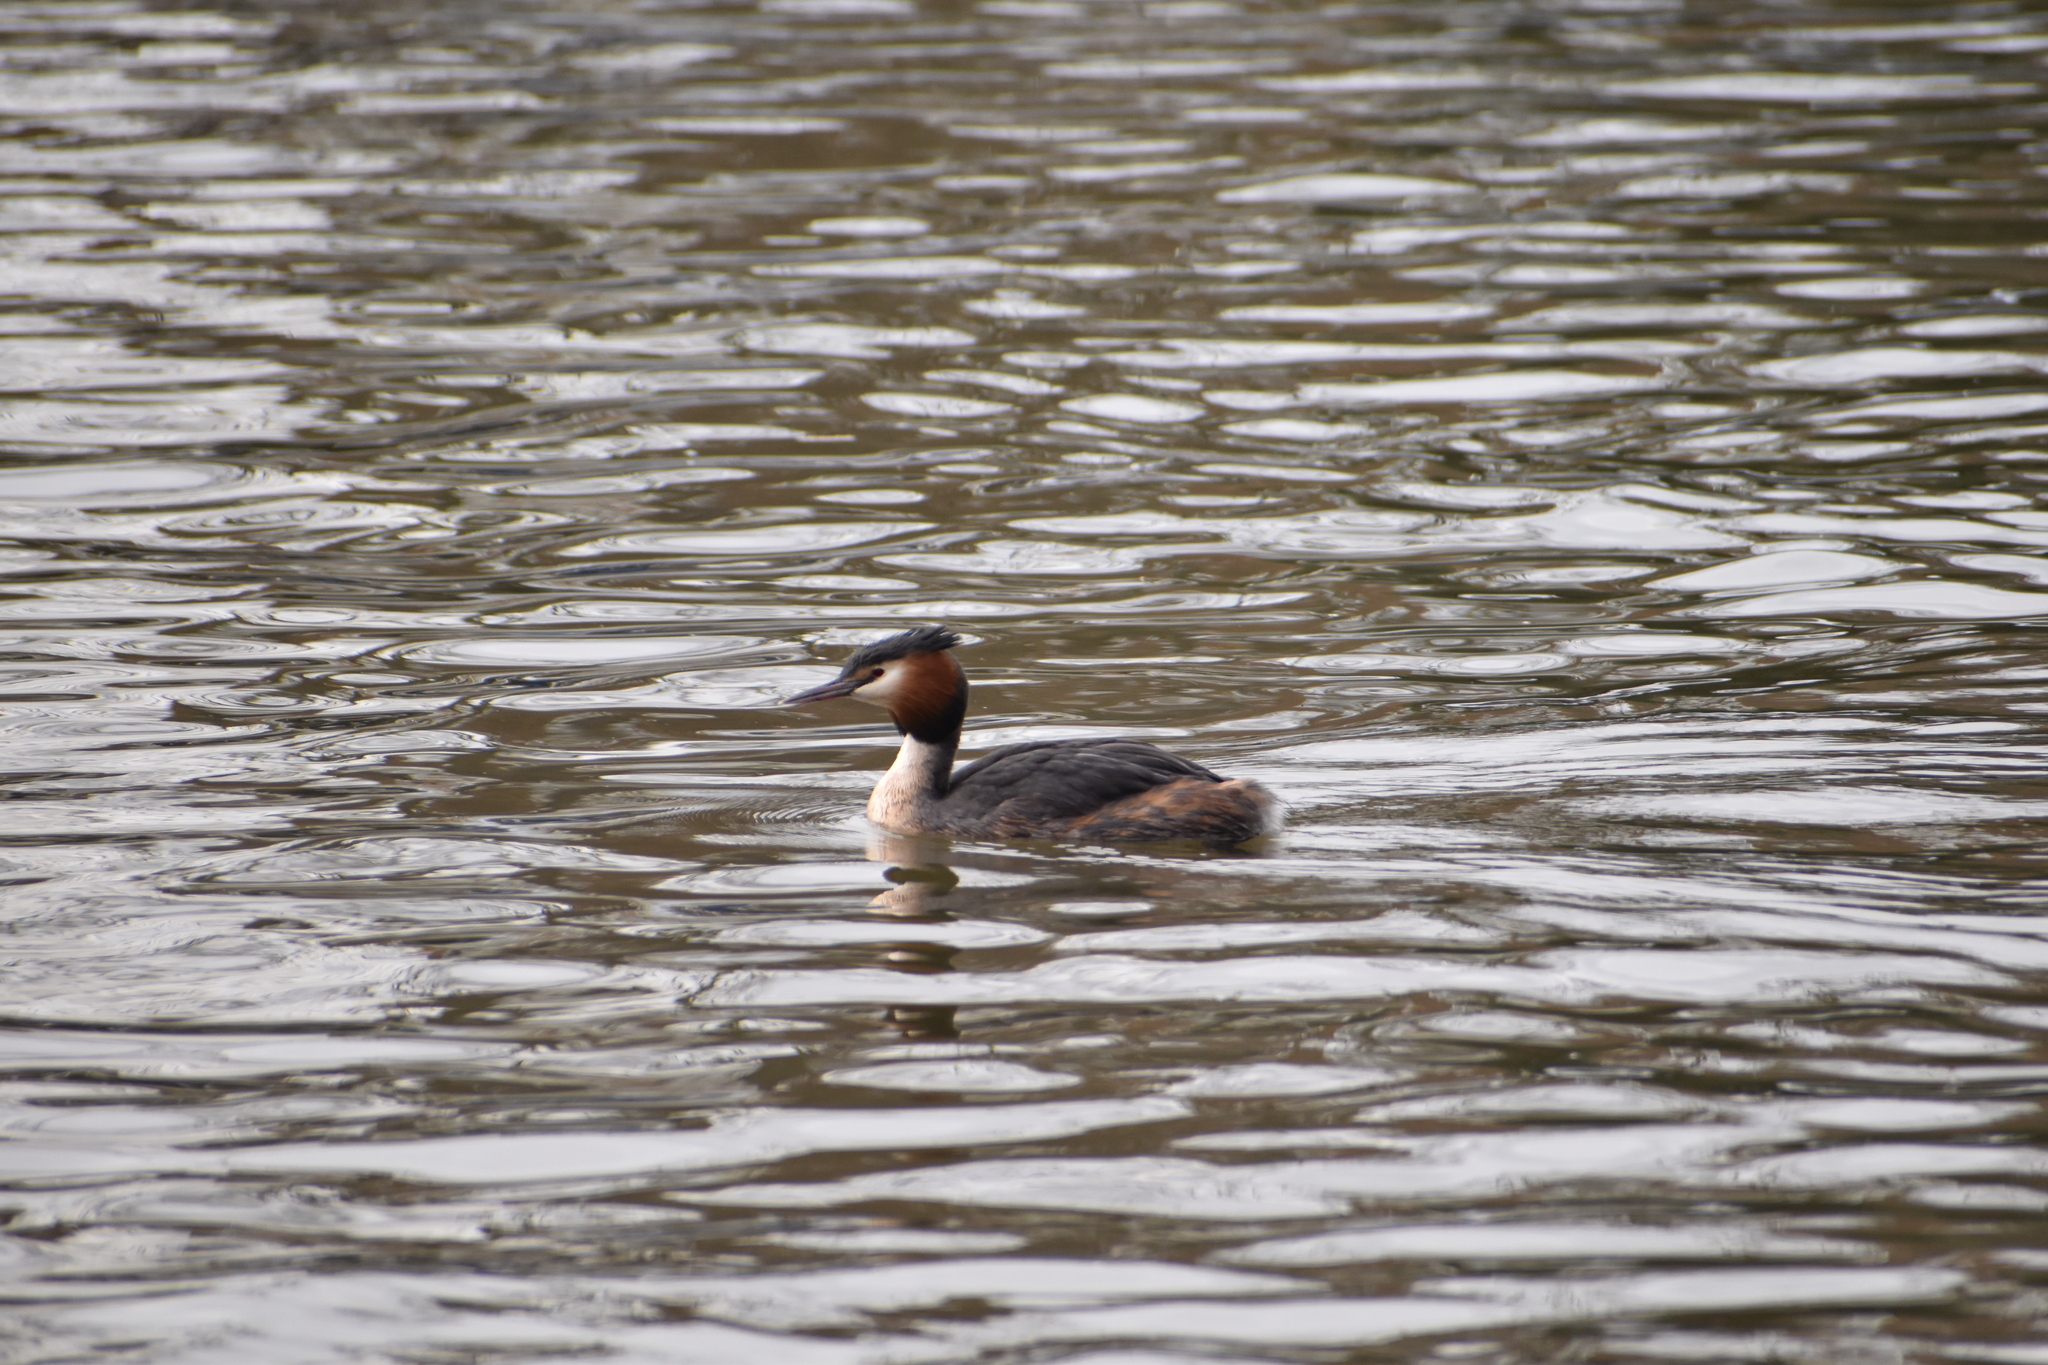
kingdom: Animalia
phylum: Chordata
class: Aves
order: Podicipediformes
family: Podicipedidae
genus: Podiceps
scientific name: Podiceps cristatus
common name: Great crested grebe
